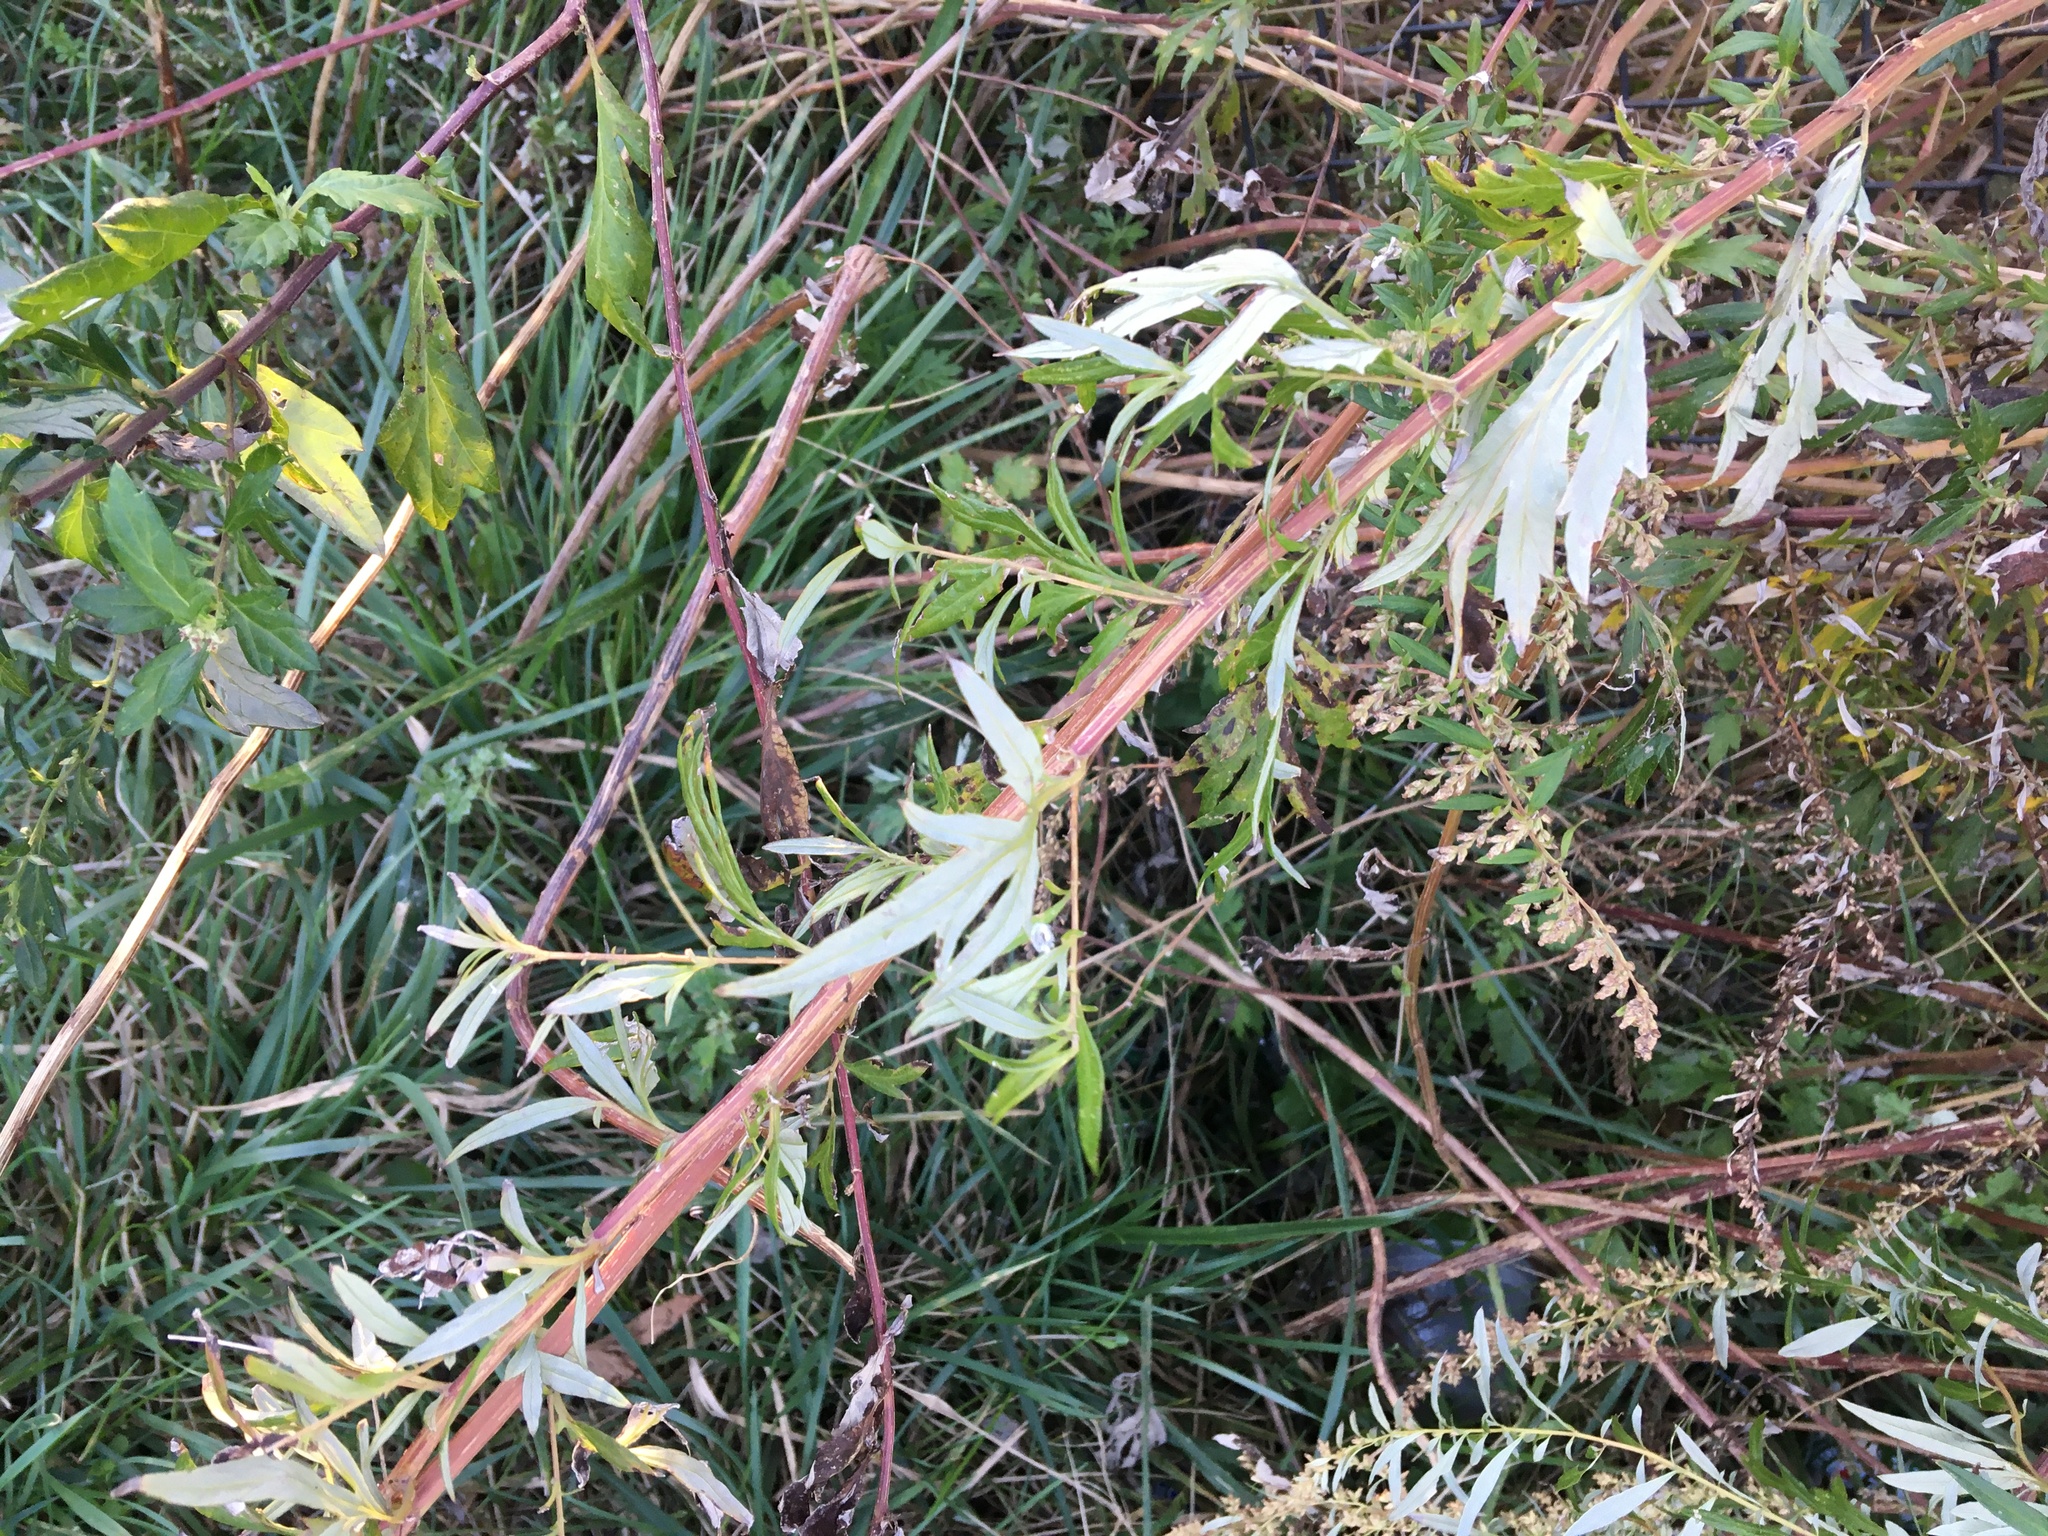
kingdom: Plantae
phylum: Tracheophyta
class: Magnoliopsida
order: Asterales
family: Asteraceae
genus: Artemisia
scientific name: Artemisia vulgaris
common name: Mugwort
